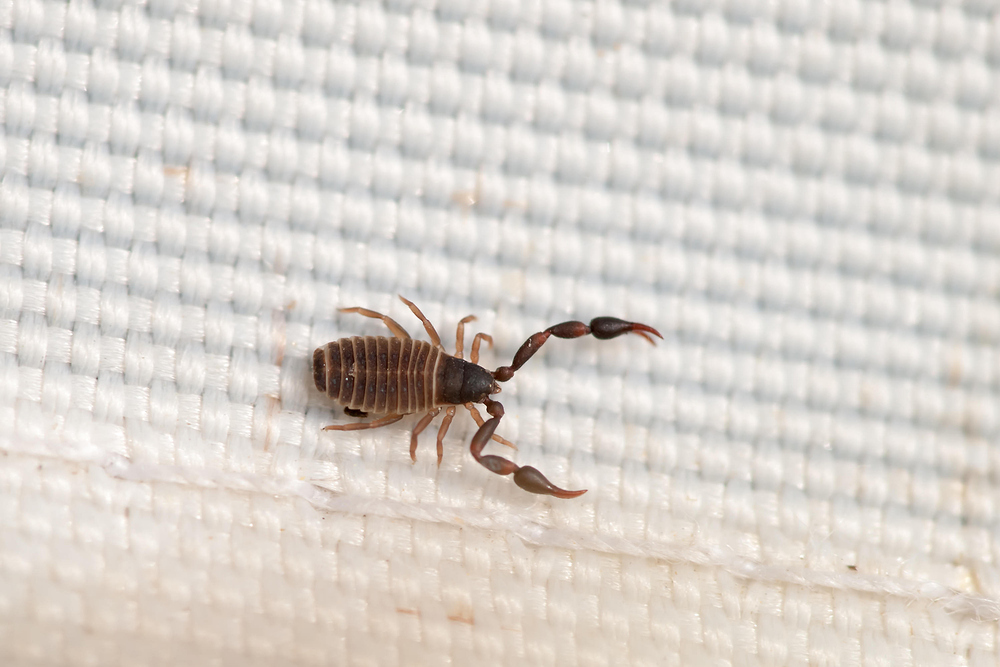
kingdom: Animalia
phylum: Arthropoda
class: Arachnida
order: Pseudoscorpiones
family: Cheliferidae
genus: Chelifer
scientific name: Chelifer cancroides
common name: House false-scorpion
